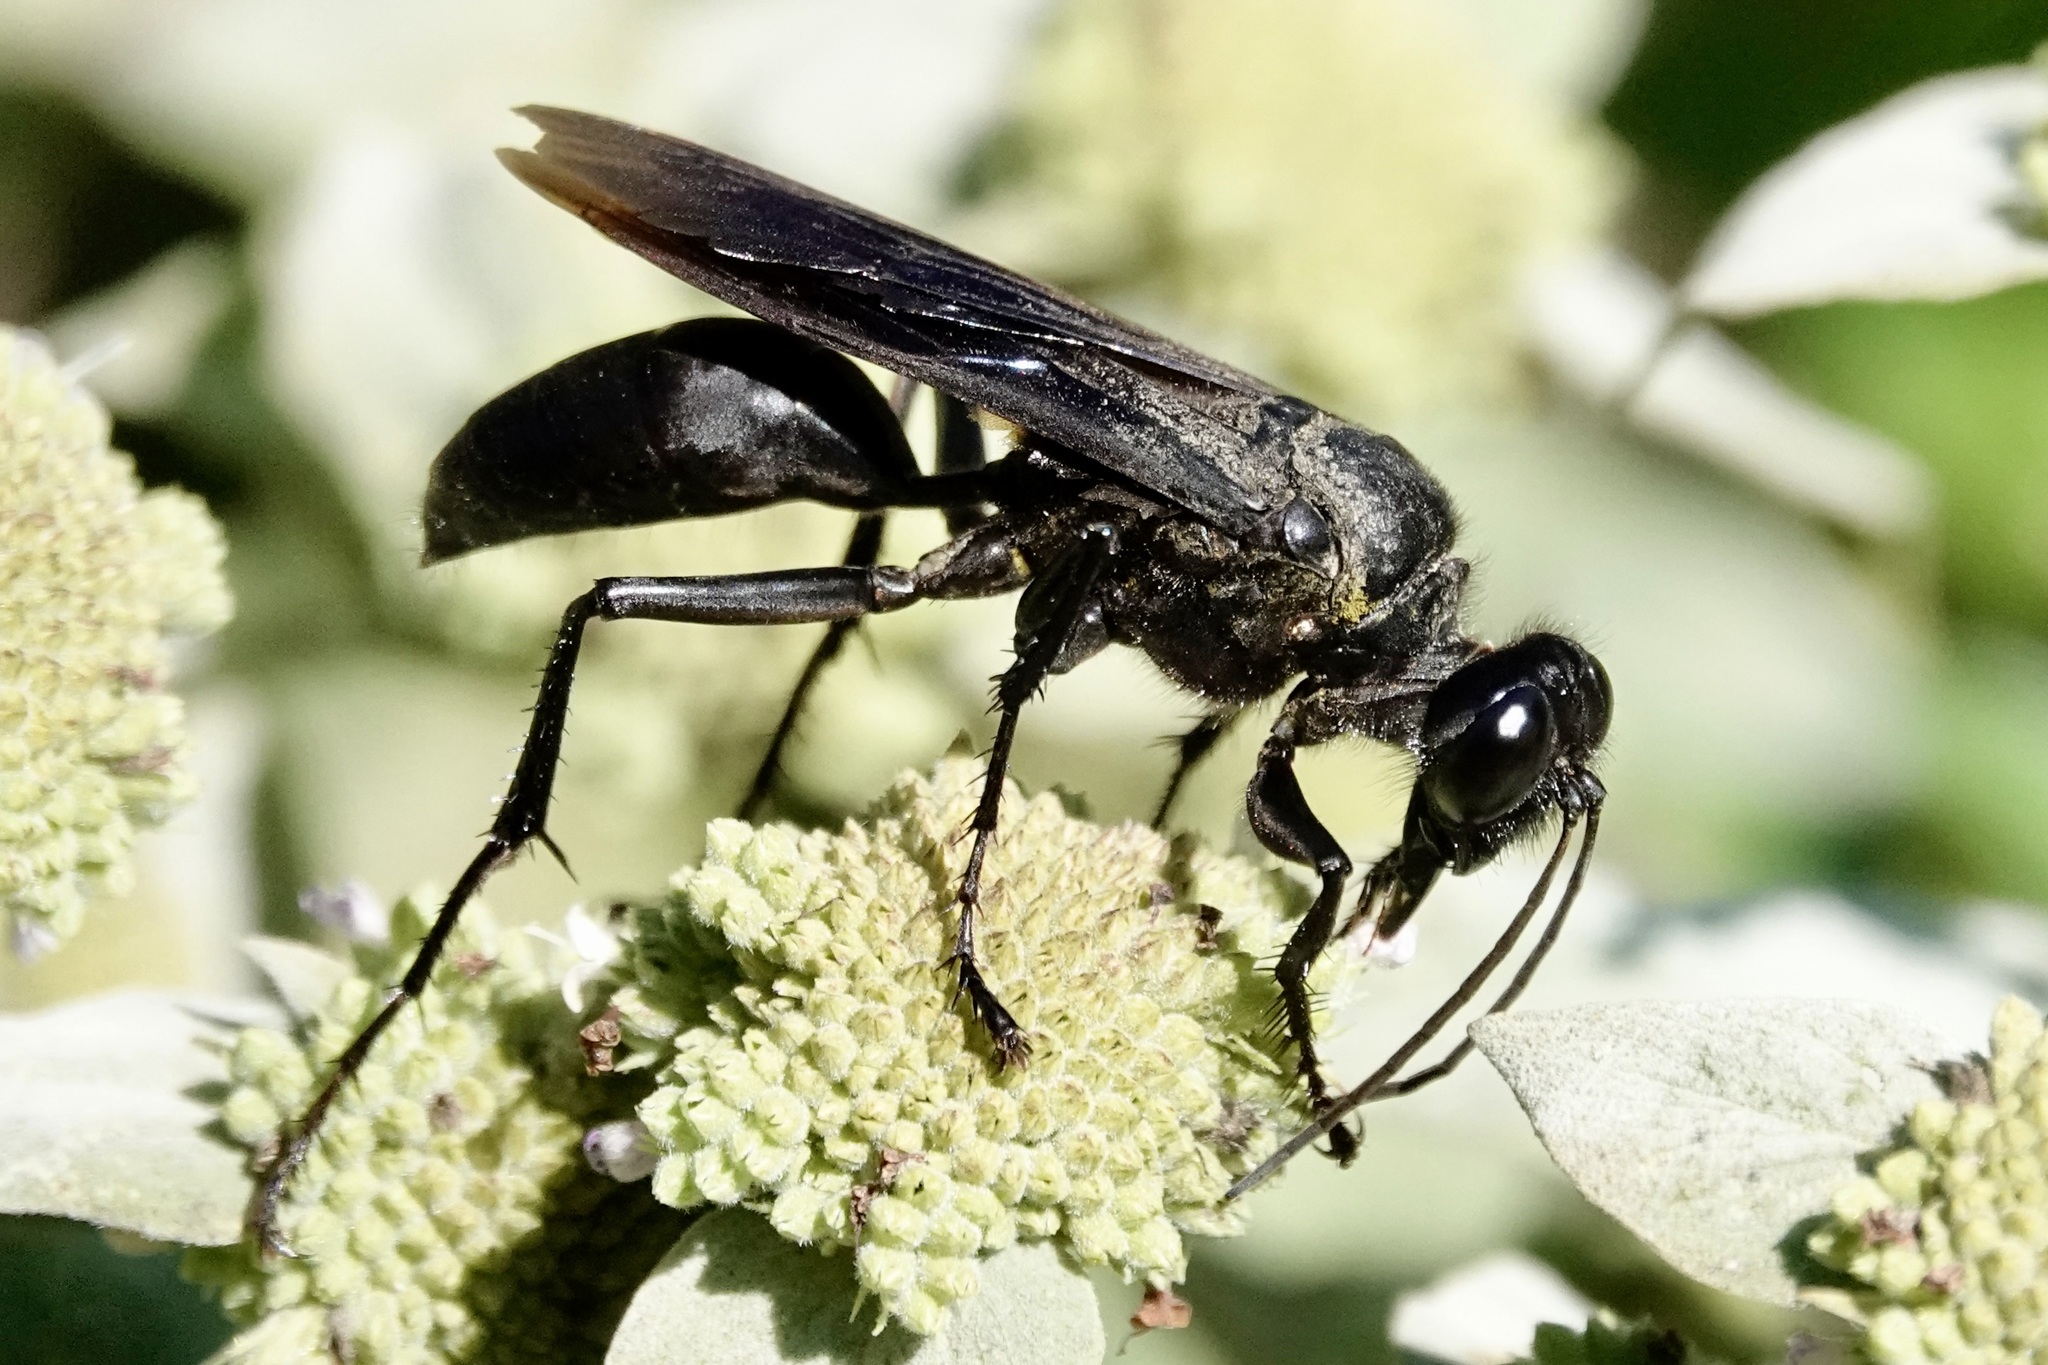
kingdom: Animalia
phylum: Arthropoda
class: Insecta
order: Hymenoptera
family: Sphecidae
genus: Sphex
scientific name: Sphex pensylvanicus
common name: Great black digger wasp
